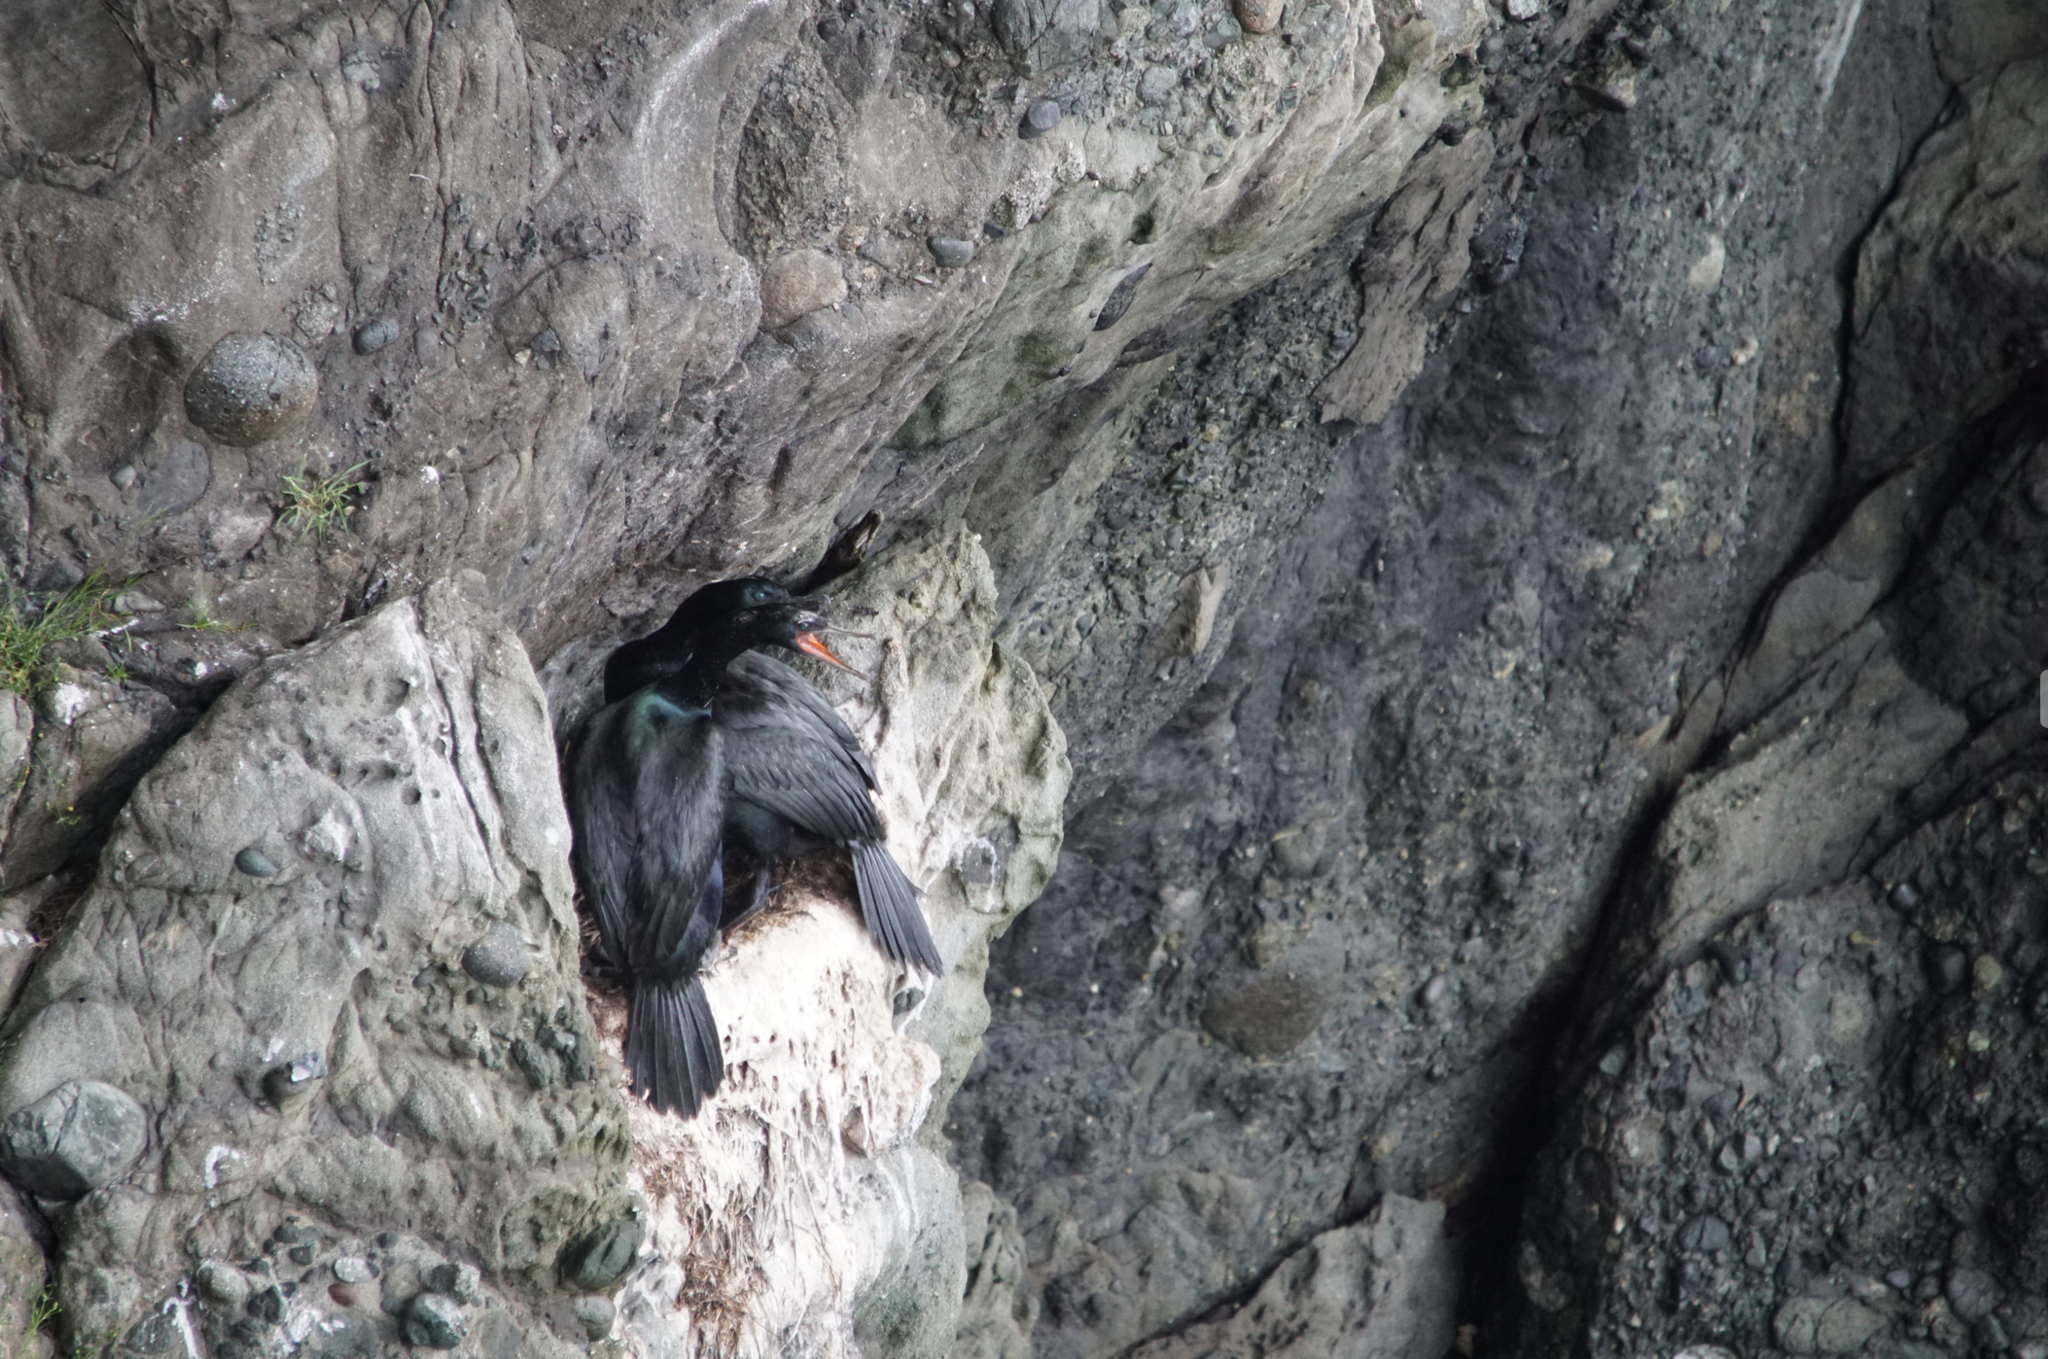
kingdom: Animalia
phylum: Chordata
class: Aves
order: Suliformes
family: Phalacrocoracidae
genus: Phalacrocorax
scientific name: Phalacrocorax pelagicus
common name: Pelagic cormorant
